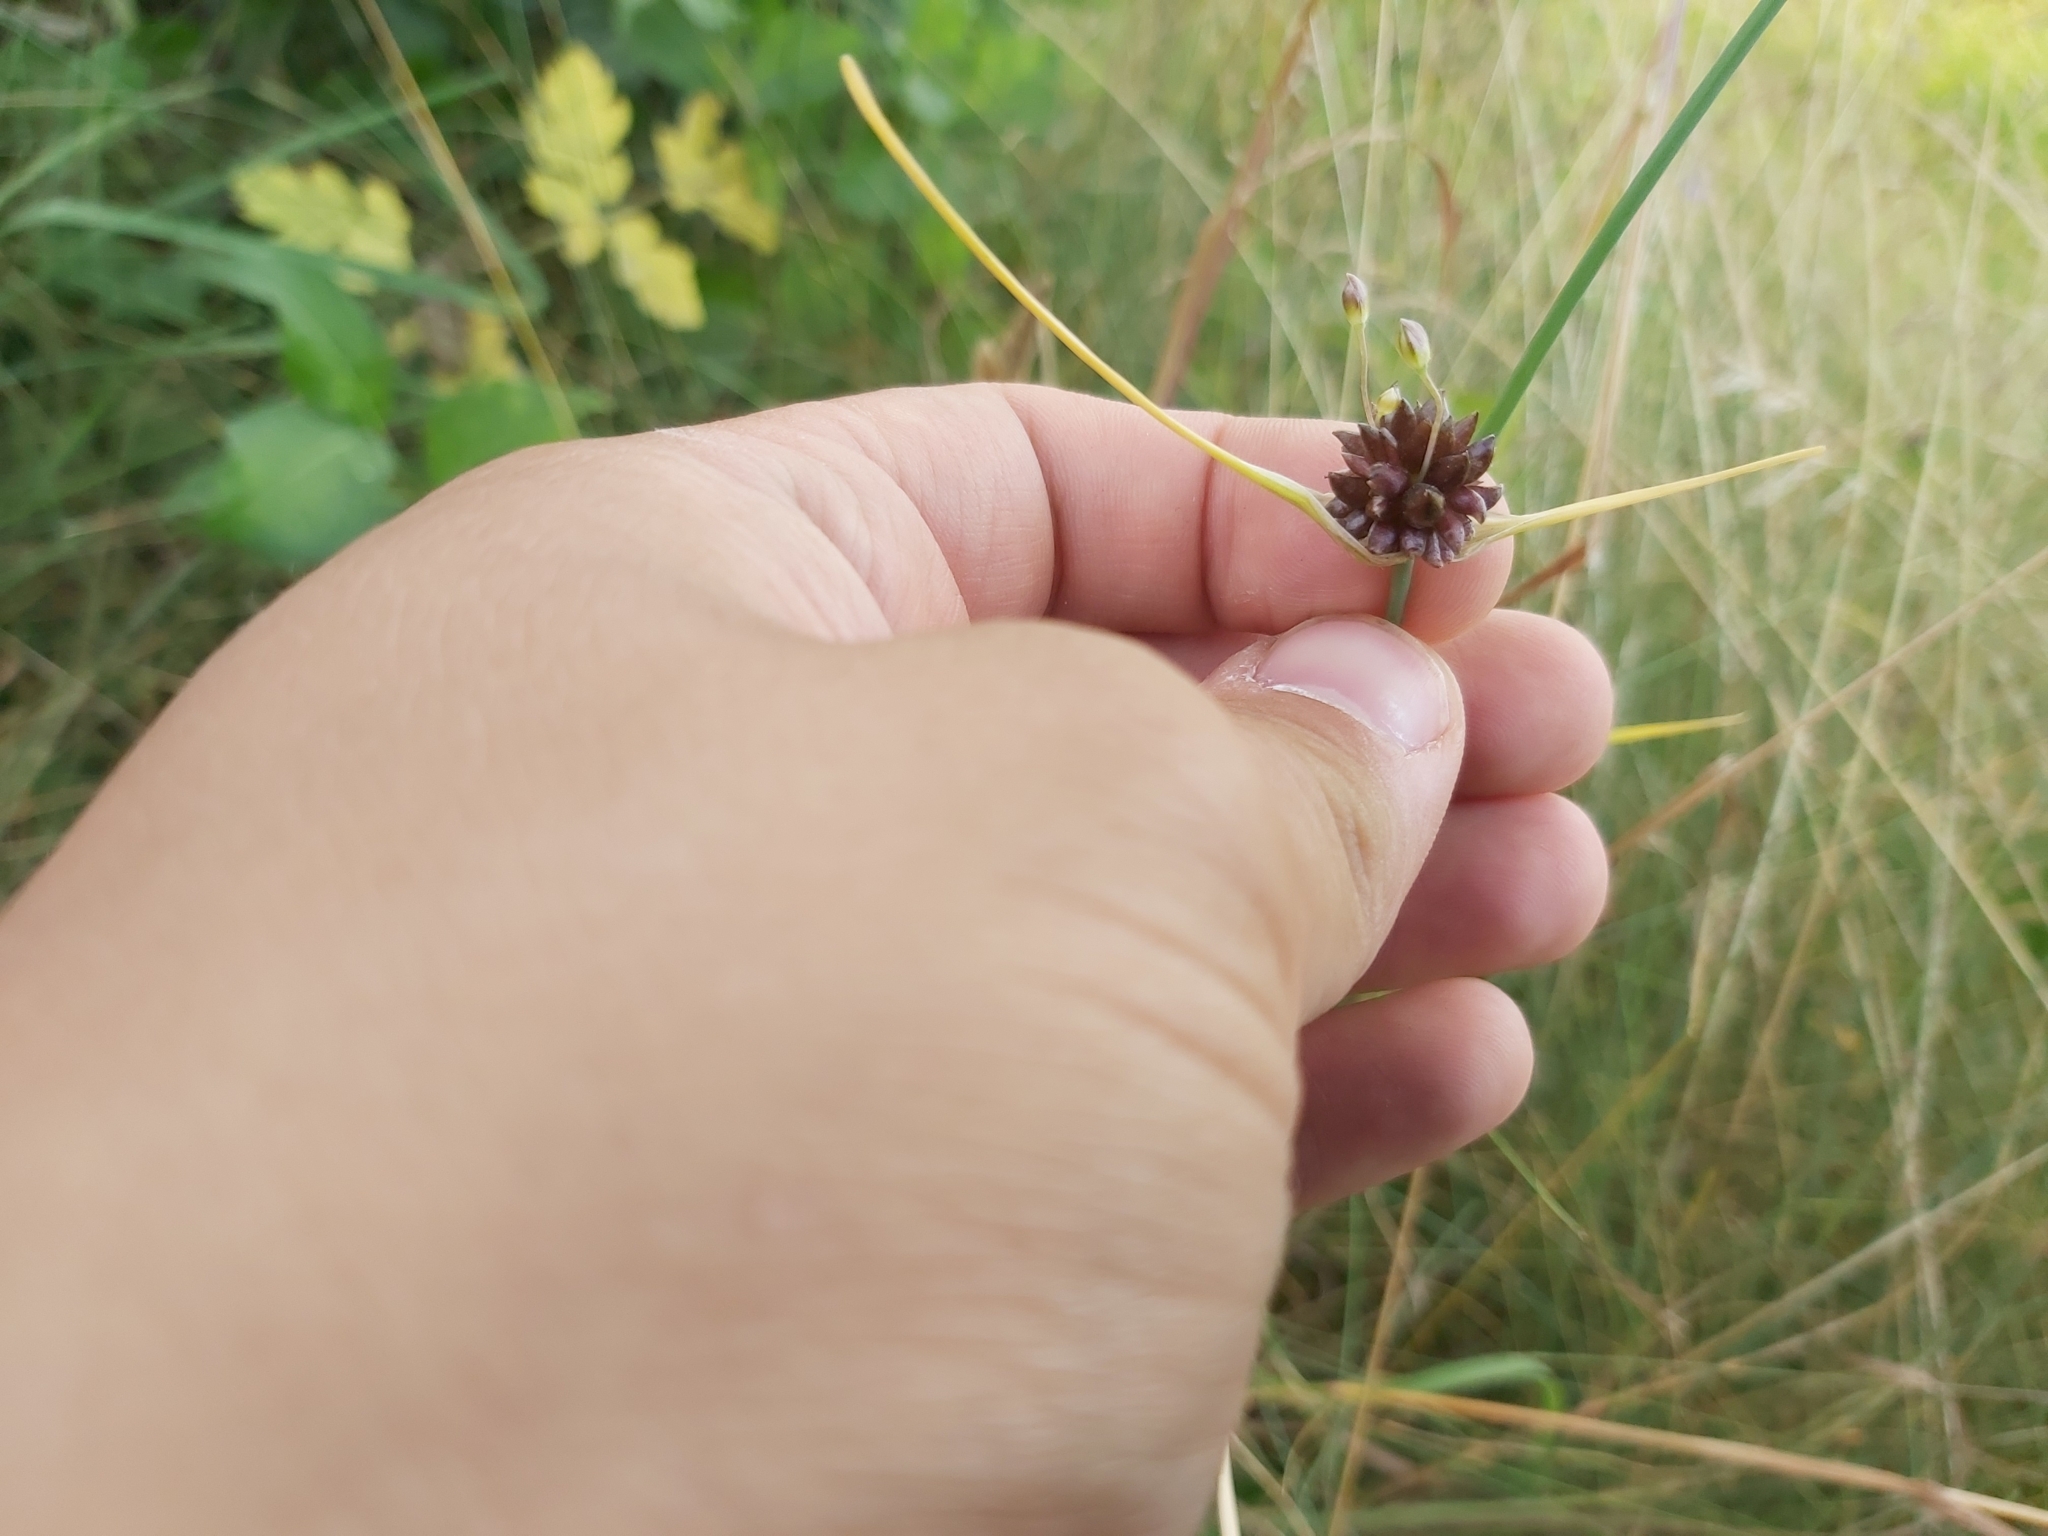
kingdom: Plantae
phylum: Tracheophyta
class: Liliopsida
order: Asparagales
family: Amaryllidaceae
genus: Allium
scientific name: Allium oleraceum
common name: Field garlic
